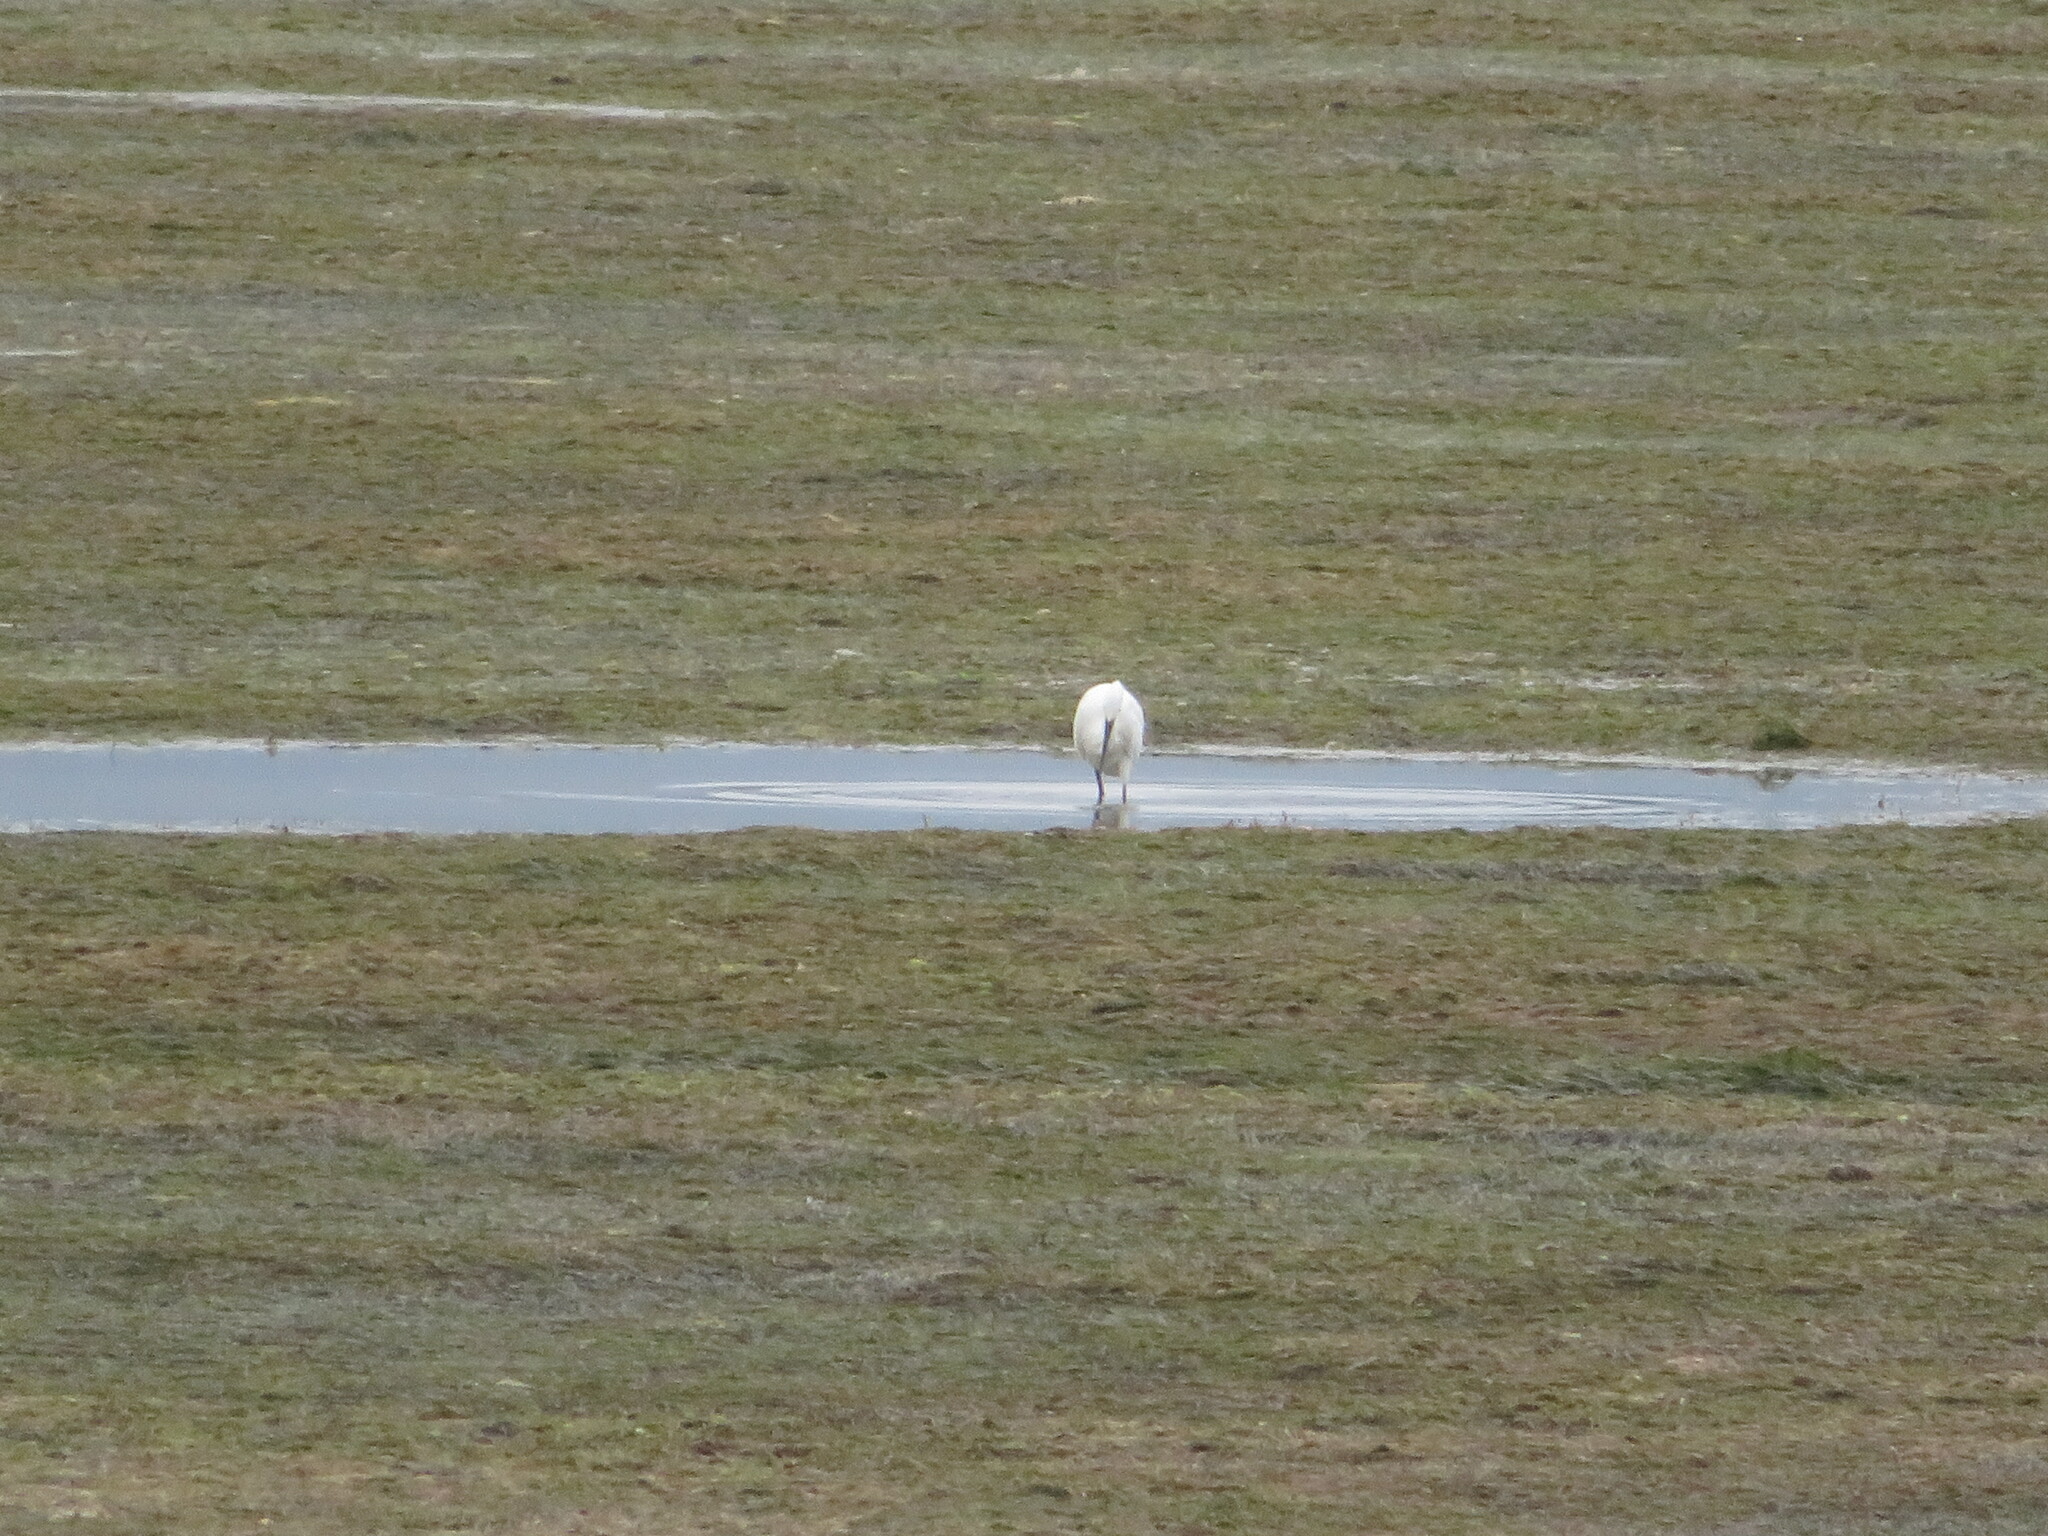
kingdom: Animalia
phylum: Chordata
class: Aves
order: Pelecaniformes
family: Ardeidae
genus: Egretta
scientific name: Egretta garzetta
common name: Little egret
